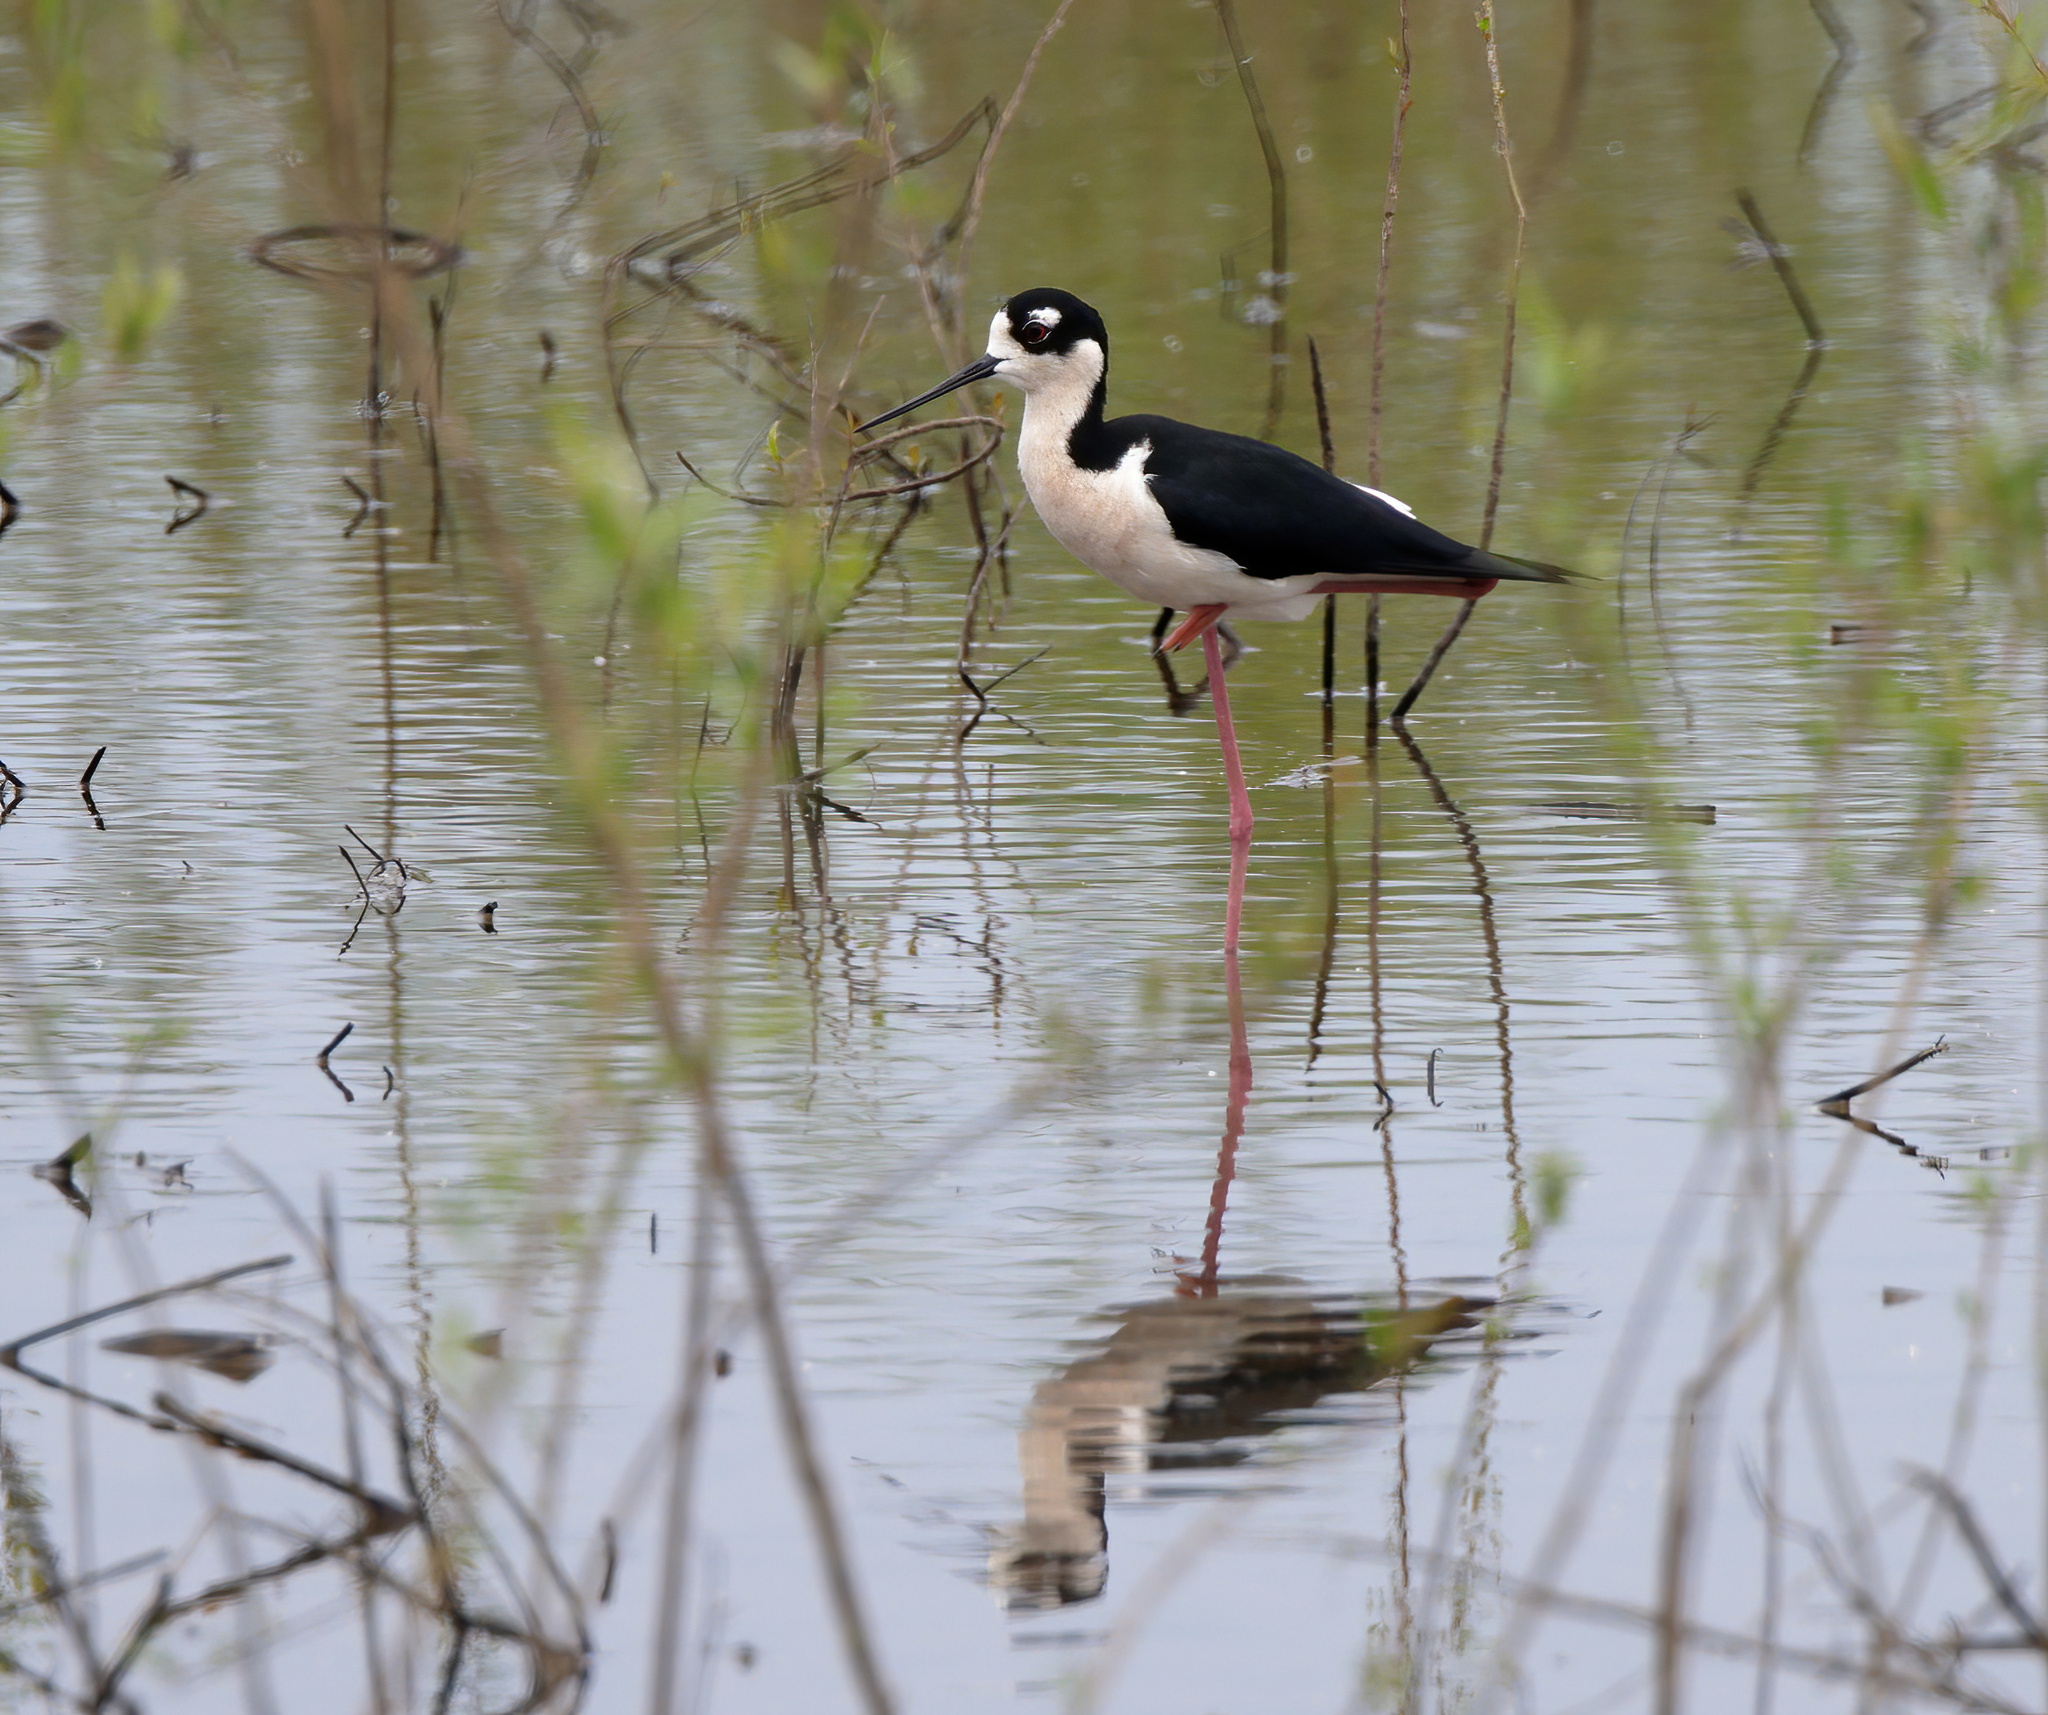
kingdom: Animalia
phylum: Chordata
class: Aves
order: Charadriiformes
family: Recurvirostridae
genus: Himantopus
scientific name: Himantopus mexicanus
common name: Black-necked stilt
